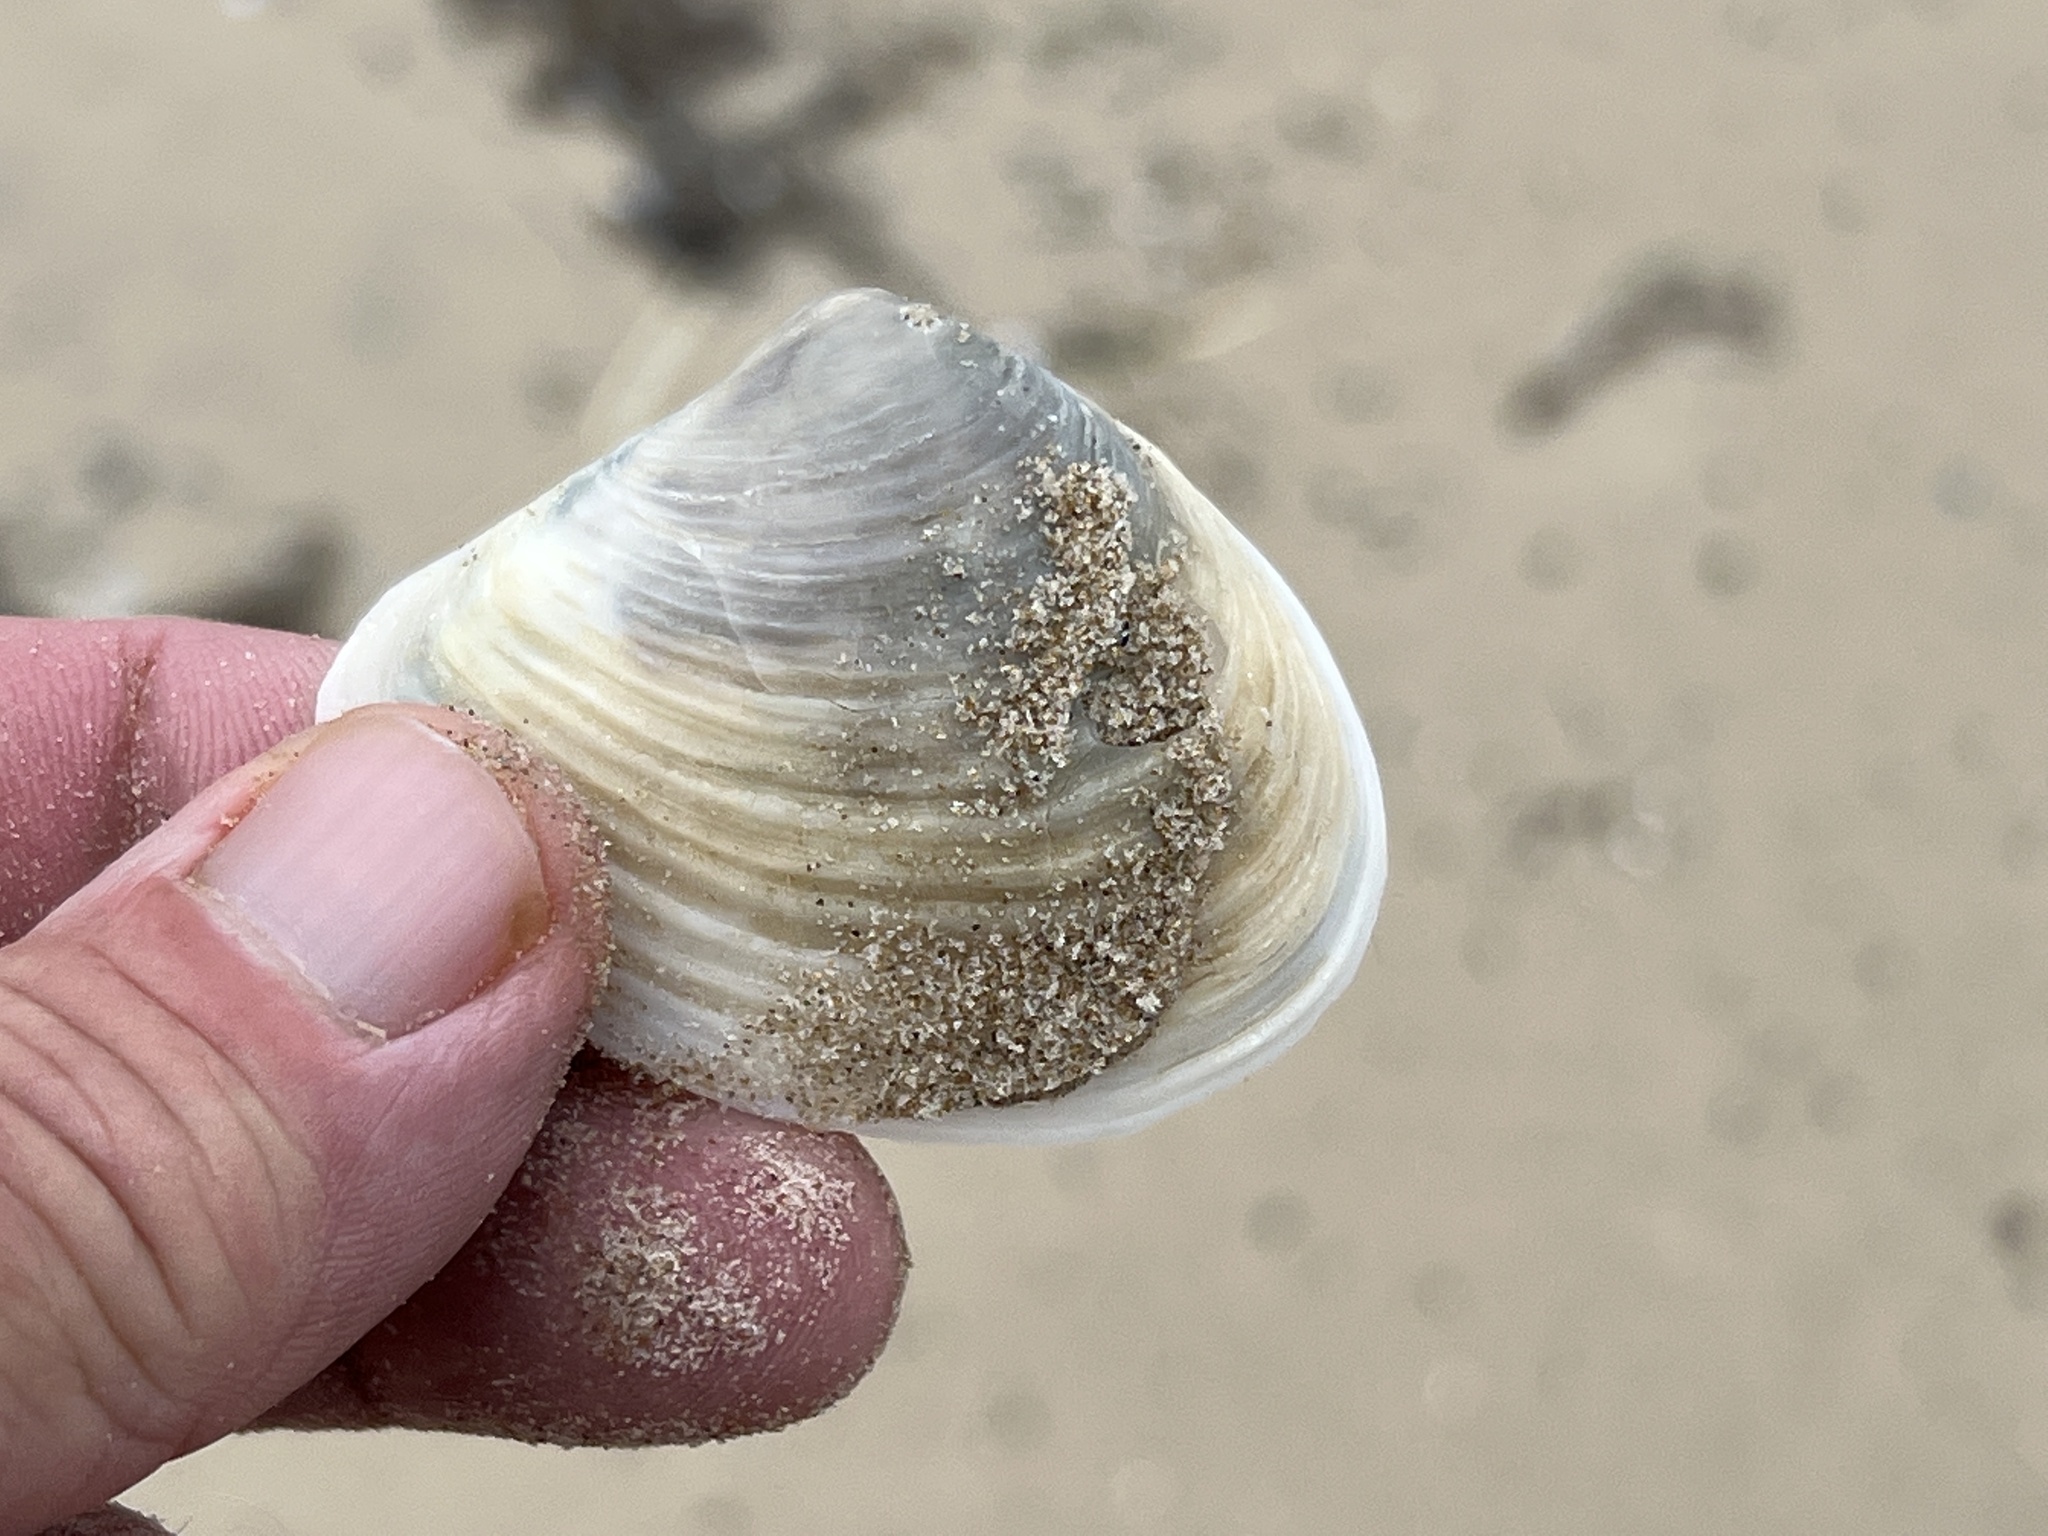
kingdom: Animalia
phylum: Mollusca
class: Bivalvia
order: Venerida
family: Anatinellidae
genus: Raeta
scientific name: Raeta plicatella
